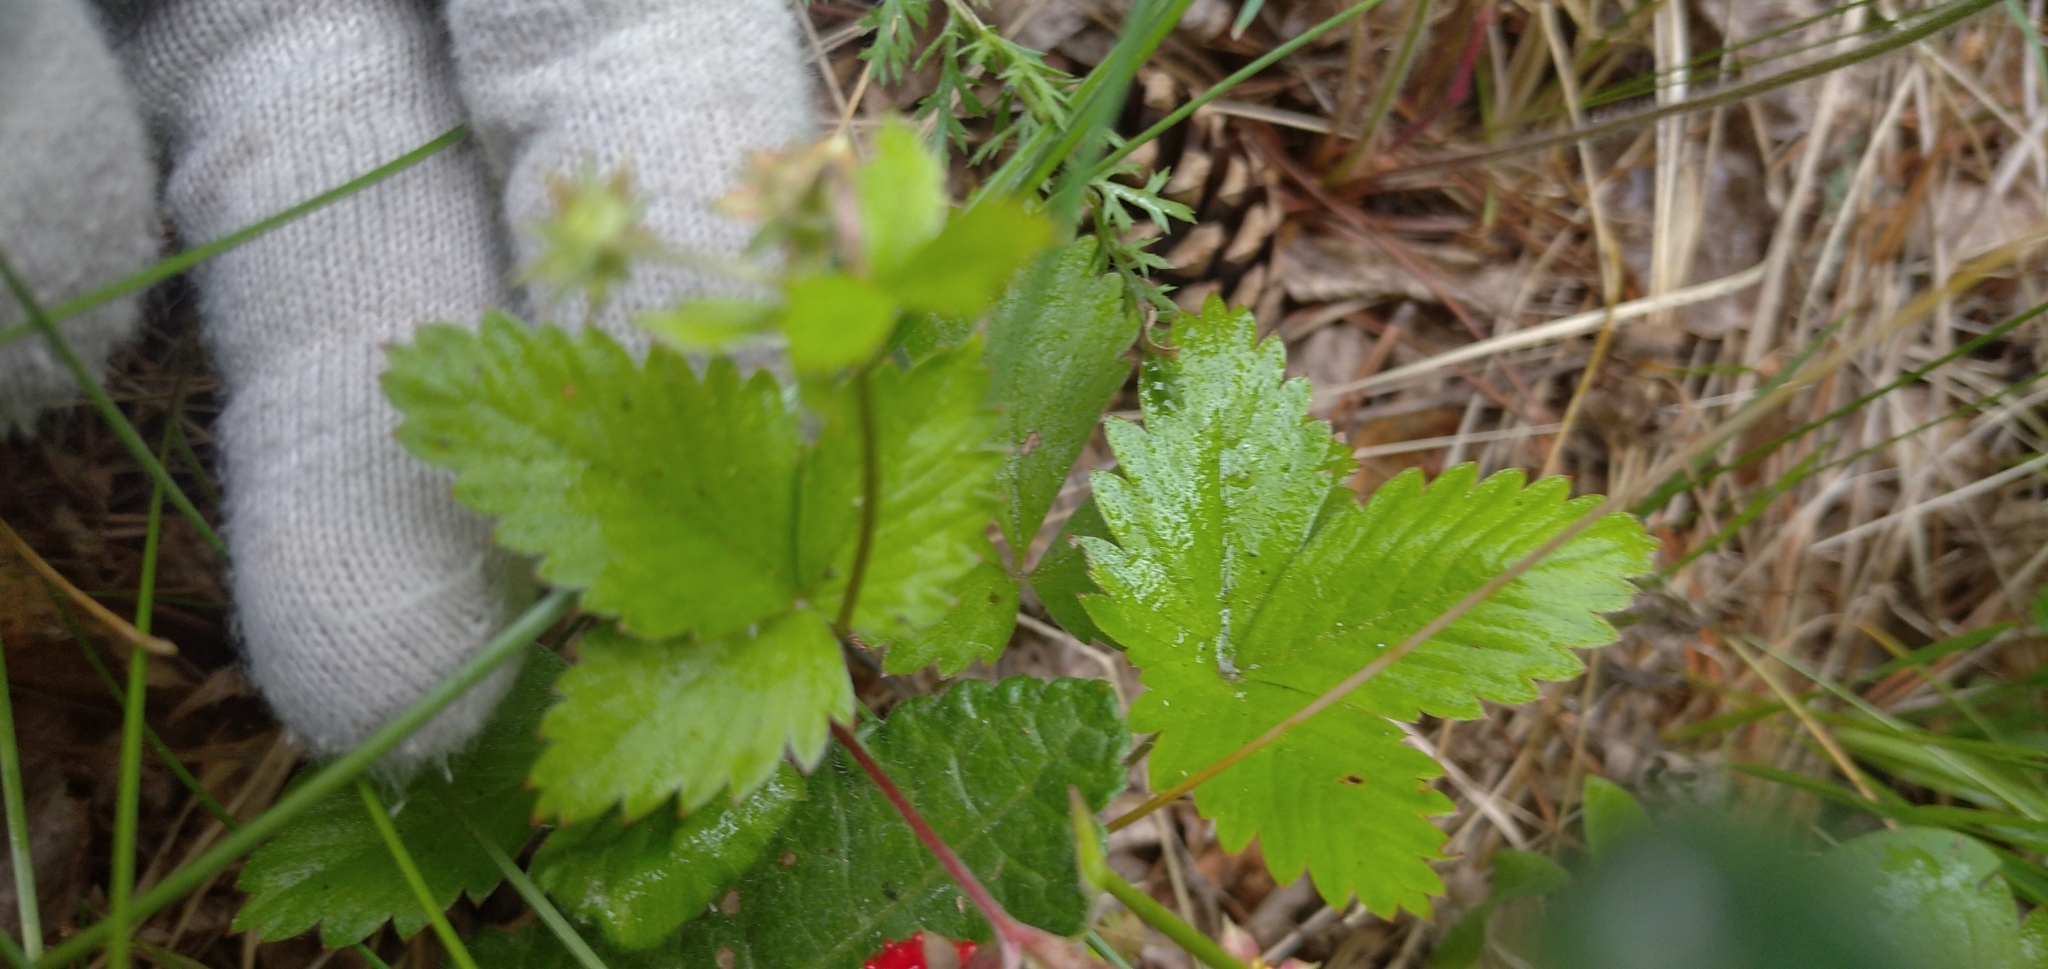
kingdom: Plantae
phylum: Tracheophyta
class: Magnoliopsida
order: Rosales
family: Rosaceae
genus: Fragaria
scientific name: Fragaria vesca
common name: Wild strawberry
